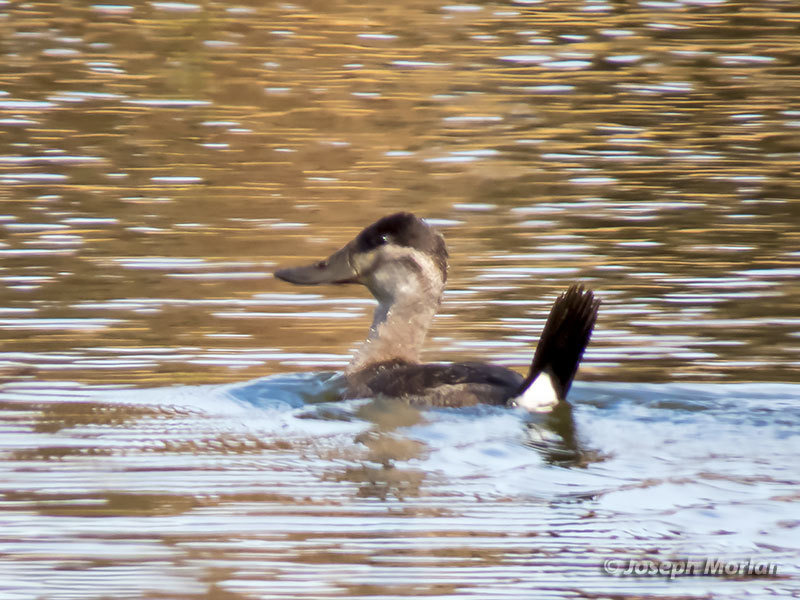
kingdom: Animalia
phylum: Chordata
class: Aves
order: Anseriformes
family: Anatidae
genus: Oxyura
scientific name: Oxyura jamaicensis
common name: Ruddy duck
